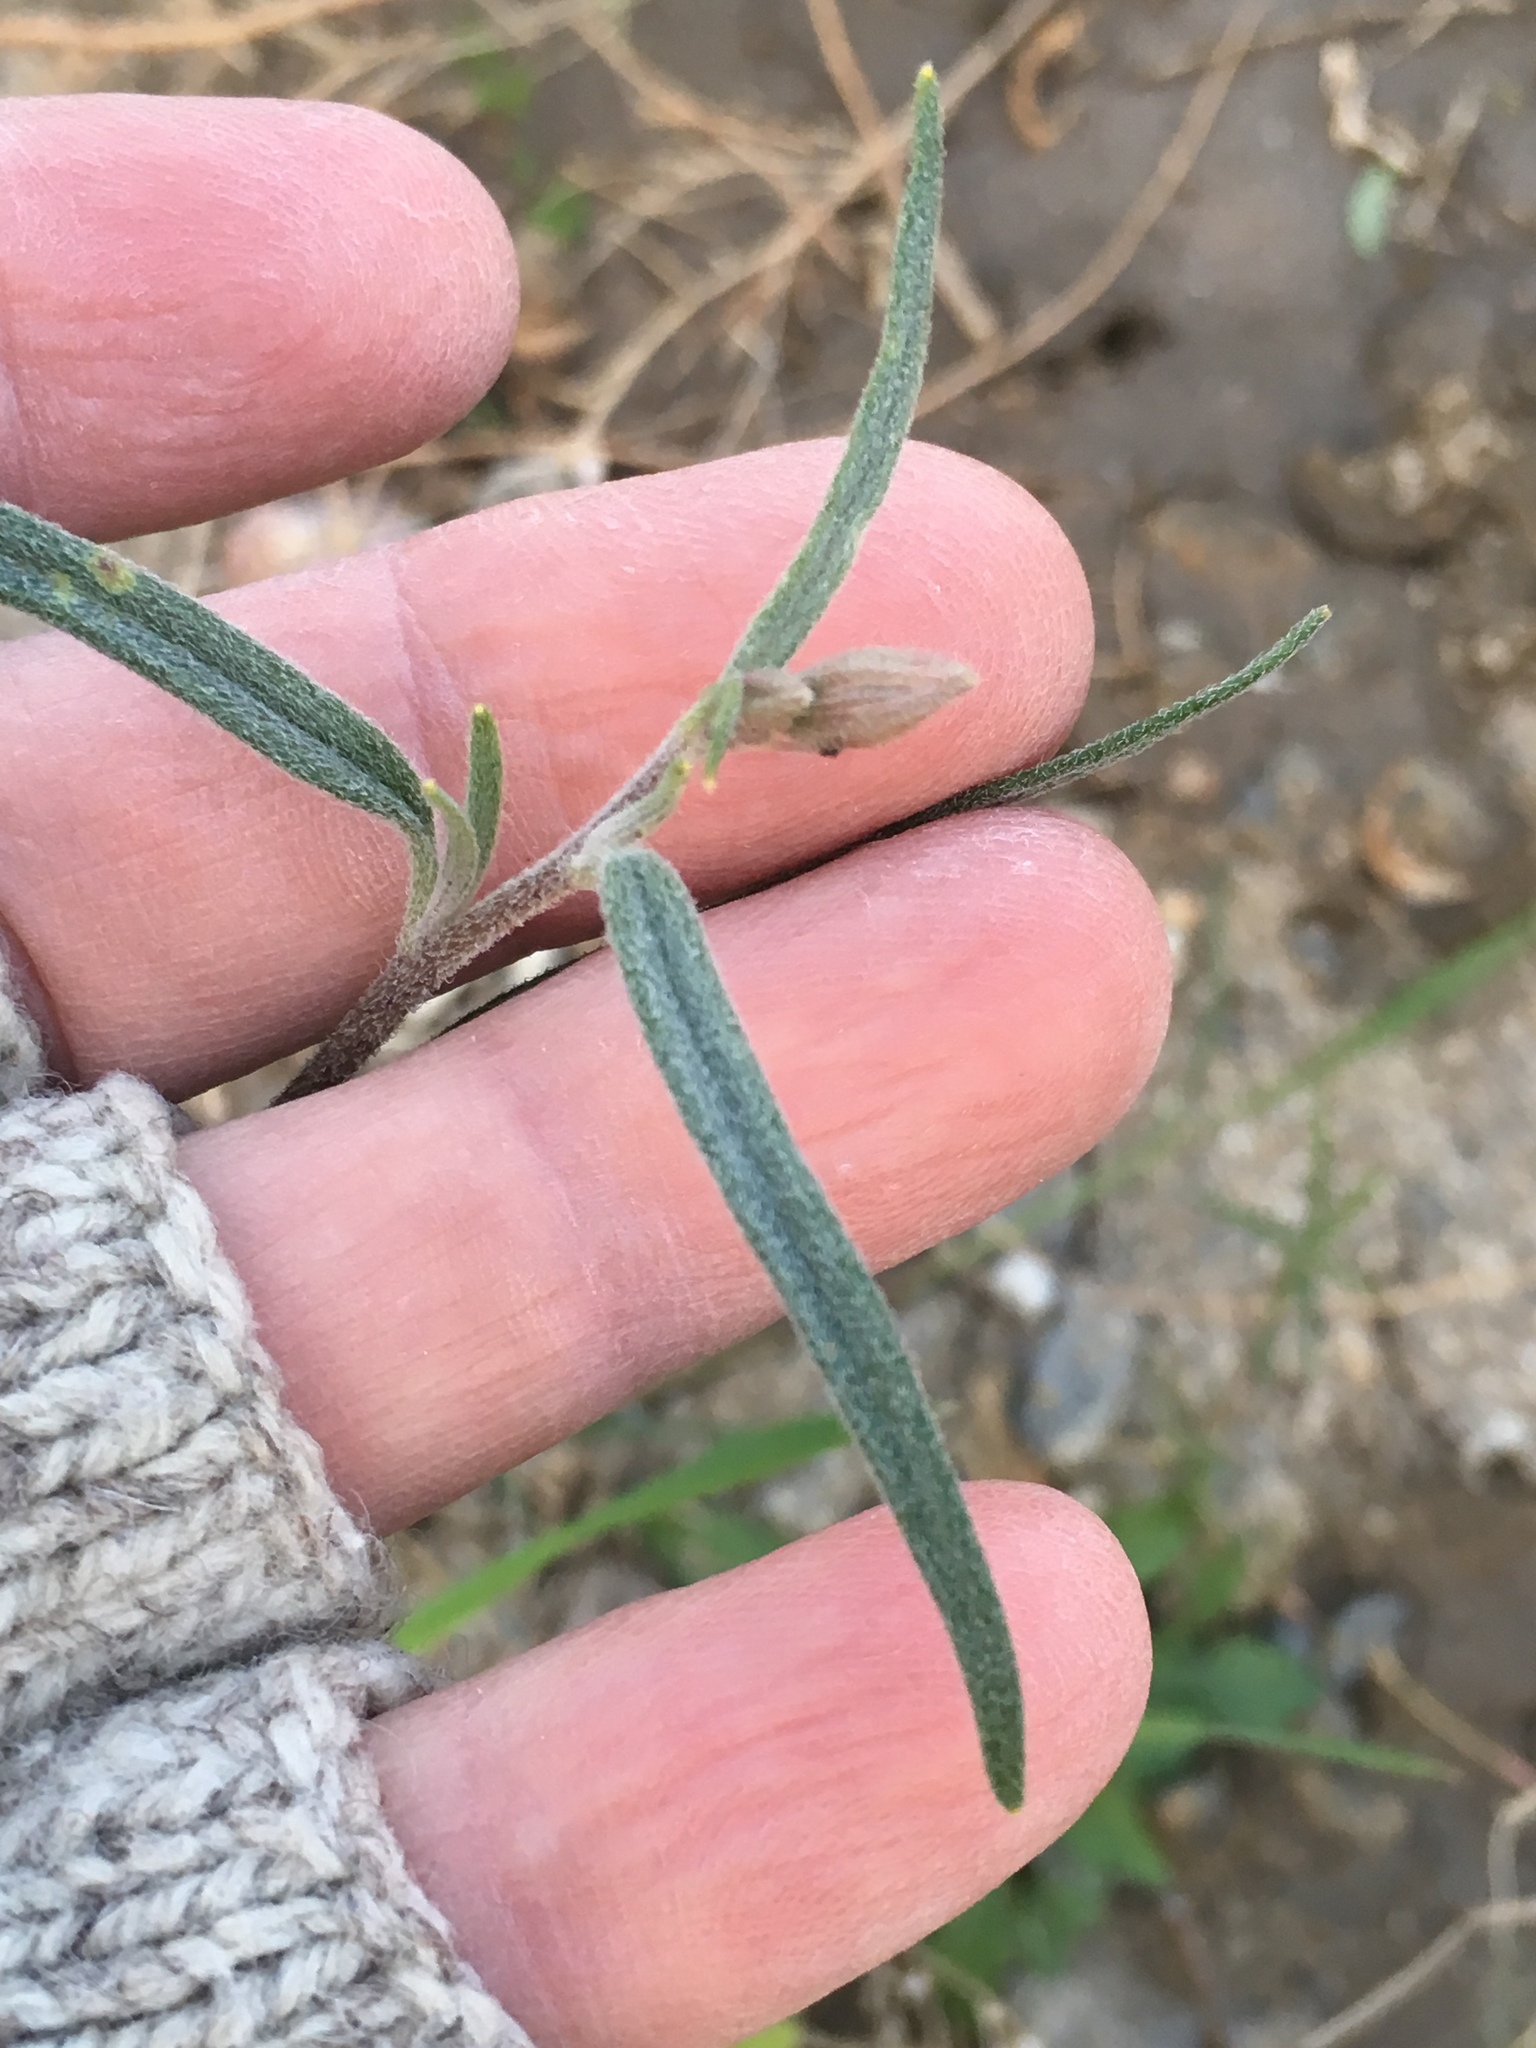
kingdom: Plantae
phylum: Tracheophyta
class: Magnoliopsida
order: Asterales
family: Asteraceae
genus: Palafoxia
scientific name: Palafoxia arida
